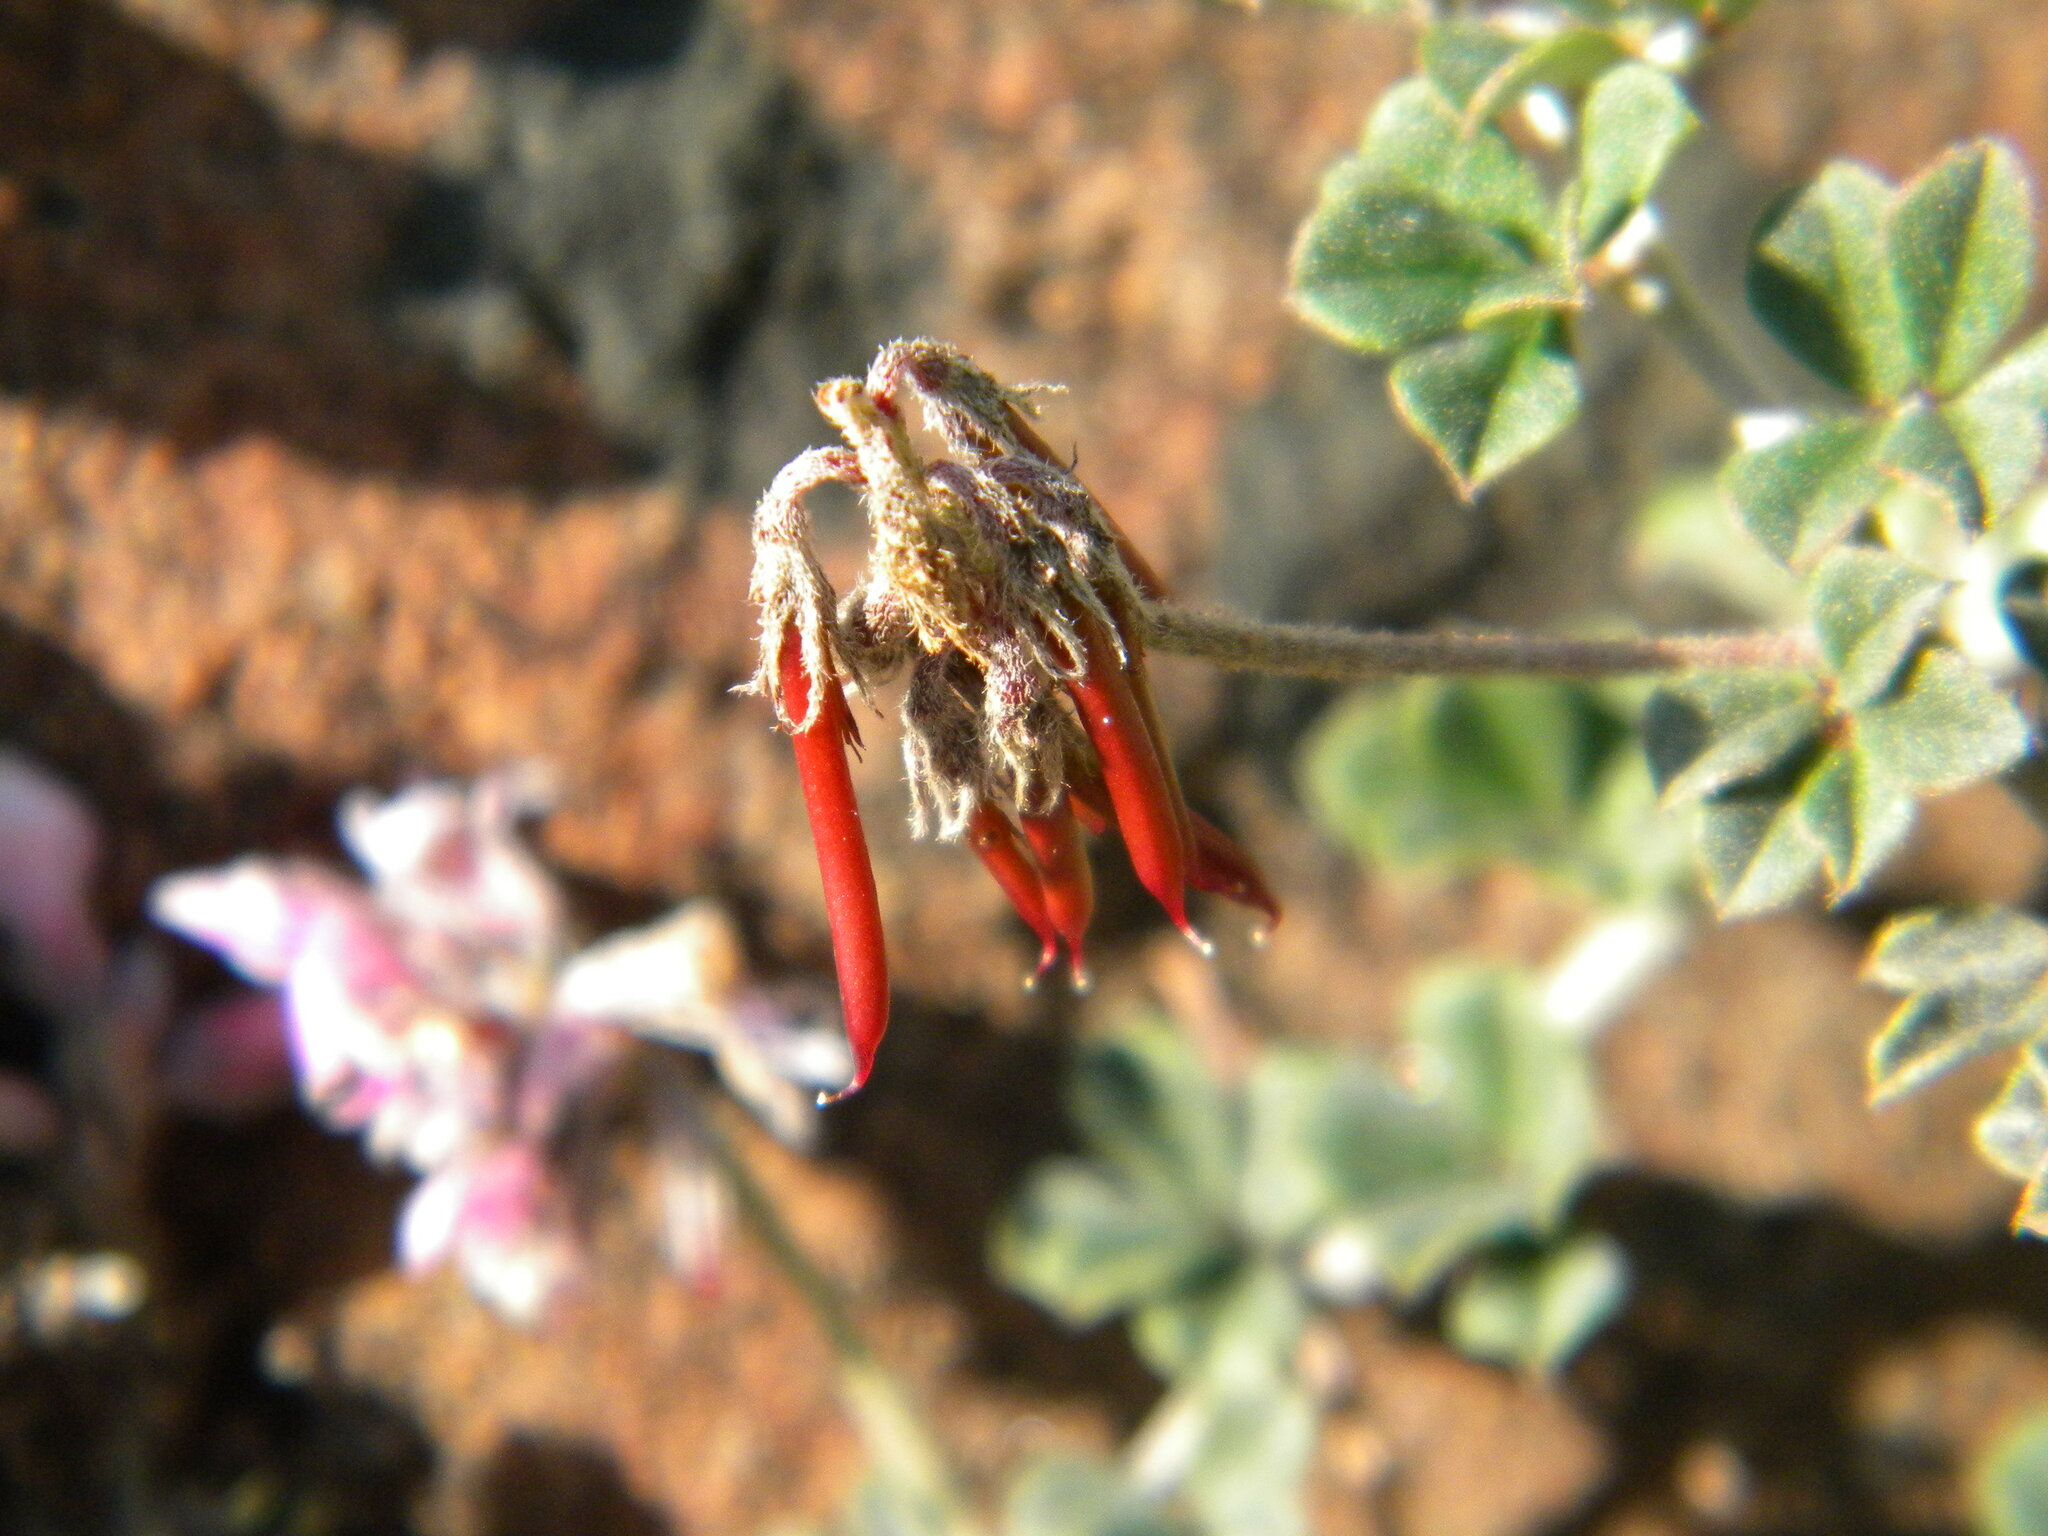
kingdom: Plantae
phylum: Tracheophyta
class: Magnoliopsida
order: Fabales
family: Fabaceae
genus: Indigofera
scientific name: Indigofera mauritanica
